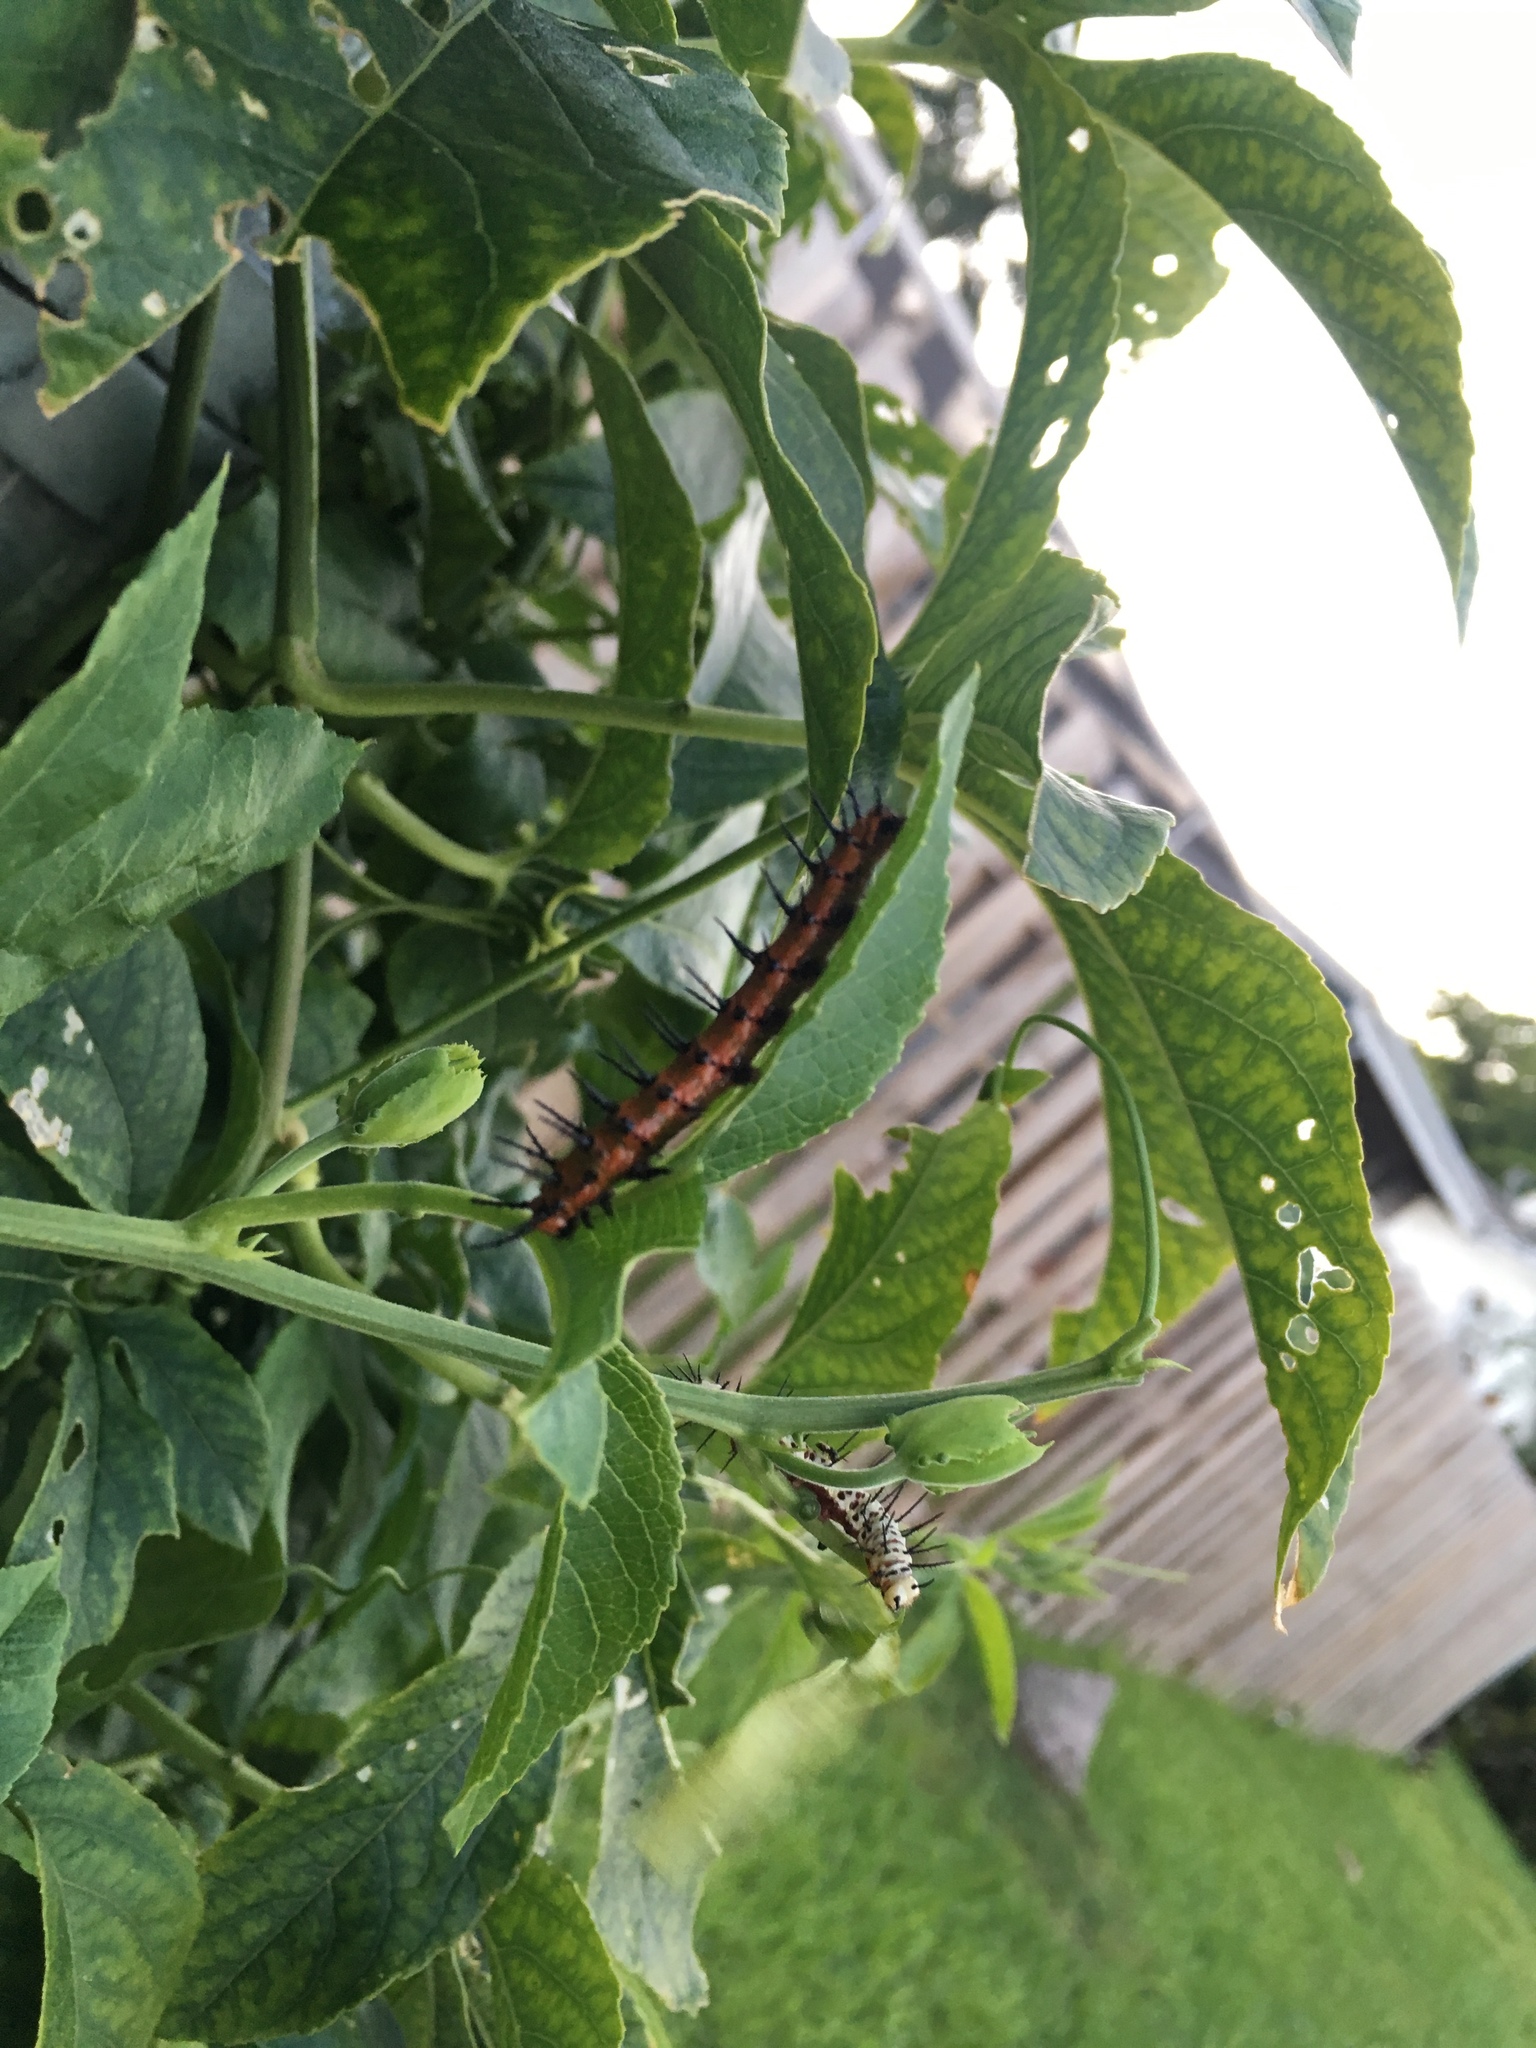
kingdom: Animalia
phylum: Arthropoda
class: Insecta
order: Lepidoptera
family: Nymphalidae
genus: Dione
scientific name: Dione vanillae
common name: Gulf fritillary
